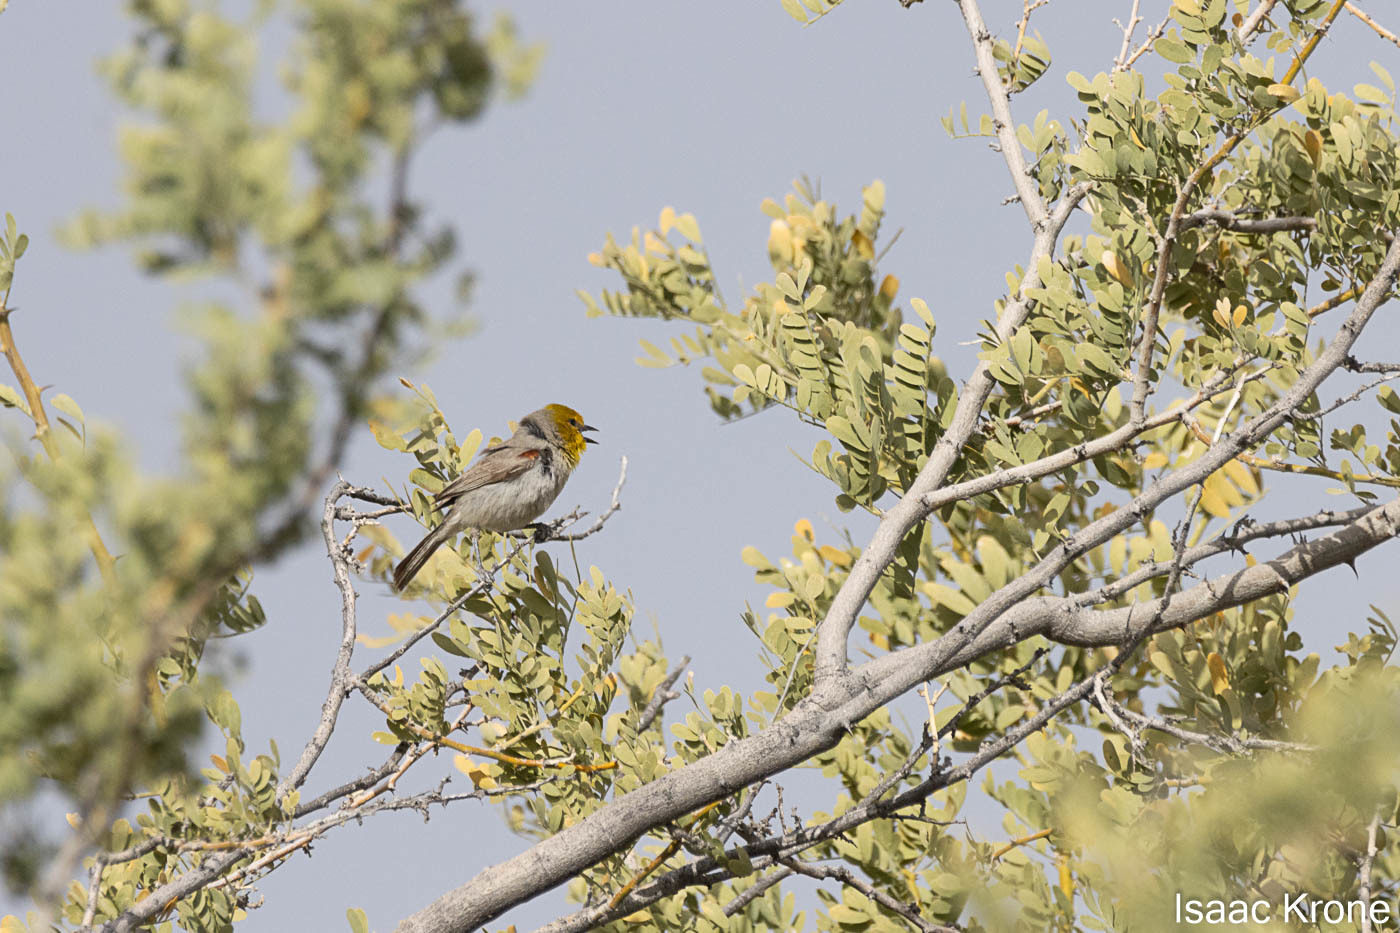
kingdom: Animalia
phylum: Chordata
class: Aves
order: Passeriformes
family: Remizidae
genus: Auriparus
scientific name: Auriparus flaviceps
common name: Verdin
